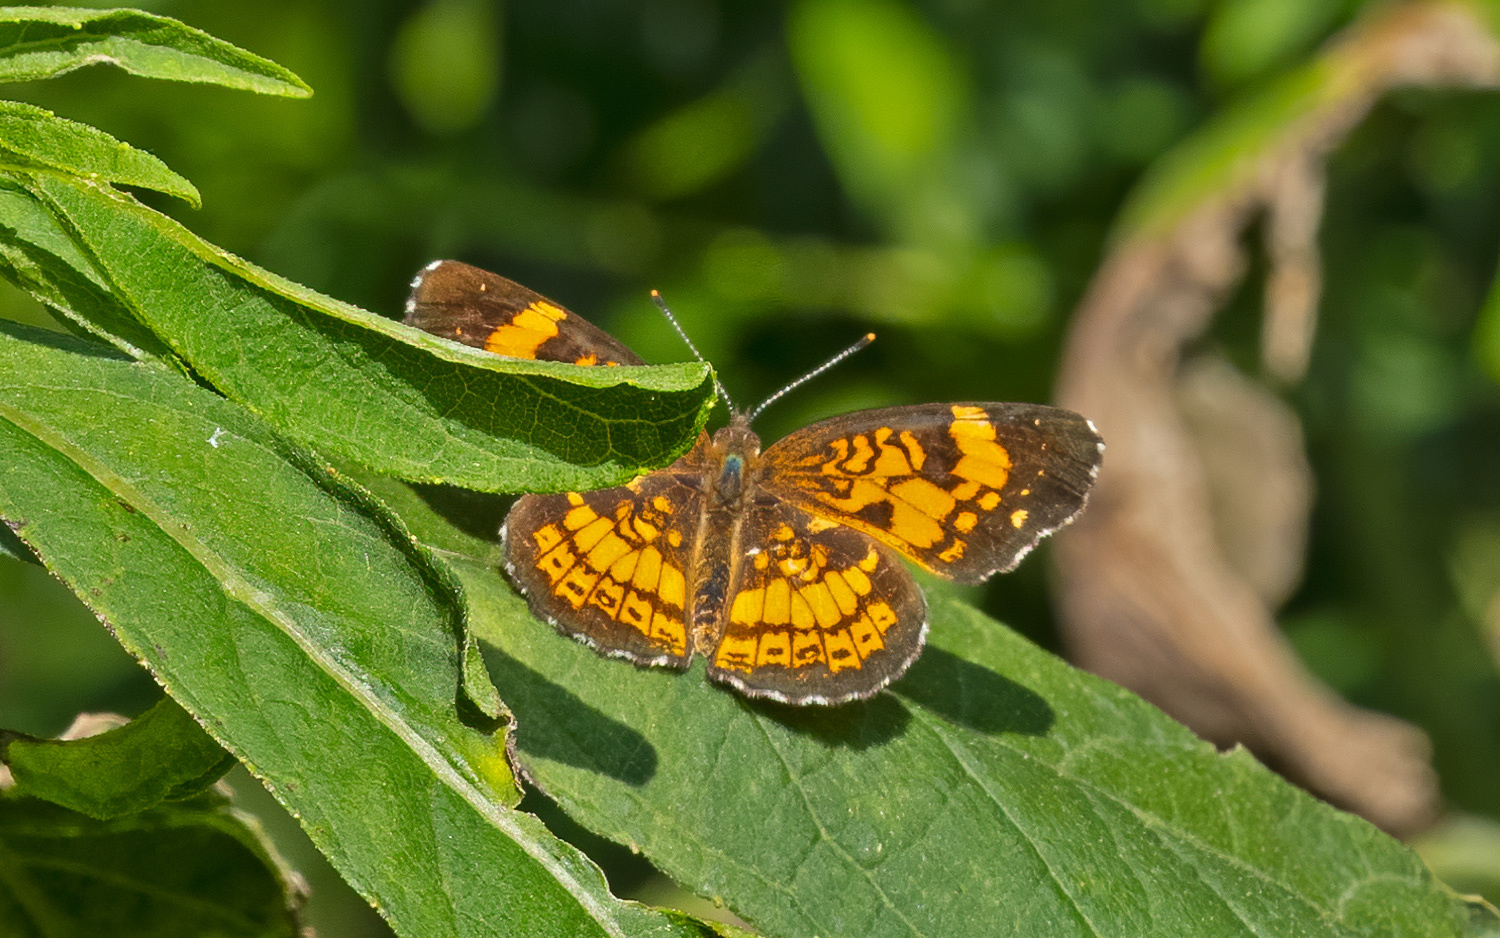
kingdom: Animalia
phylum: Arthropoda
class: Insecta
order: Lepidoptera
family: Nymphalidae
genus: Chlosyne
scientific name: Chlosyne nycteis
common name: Silvery checkerspot
